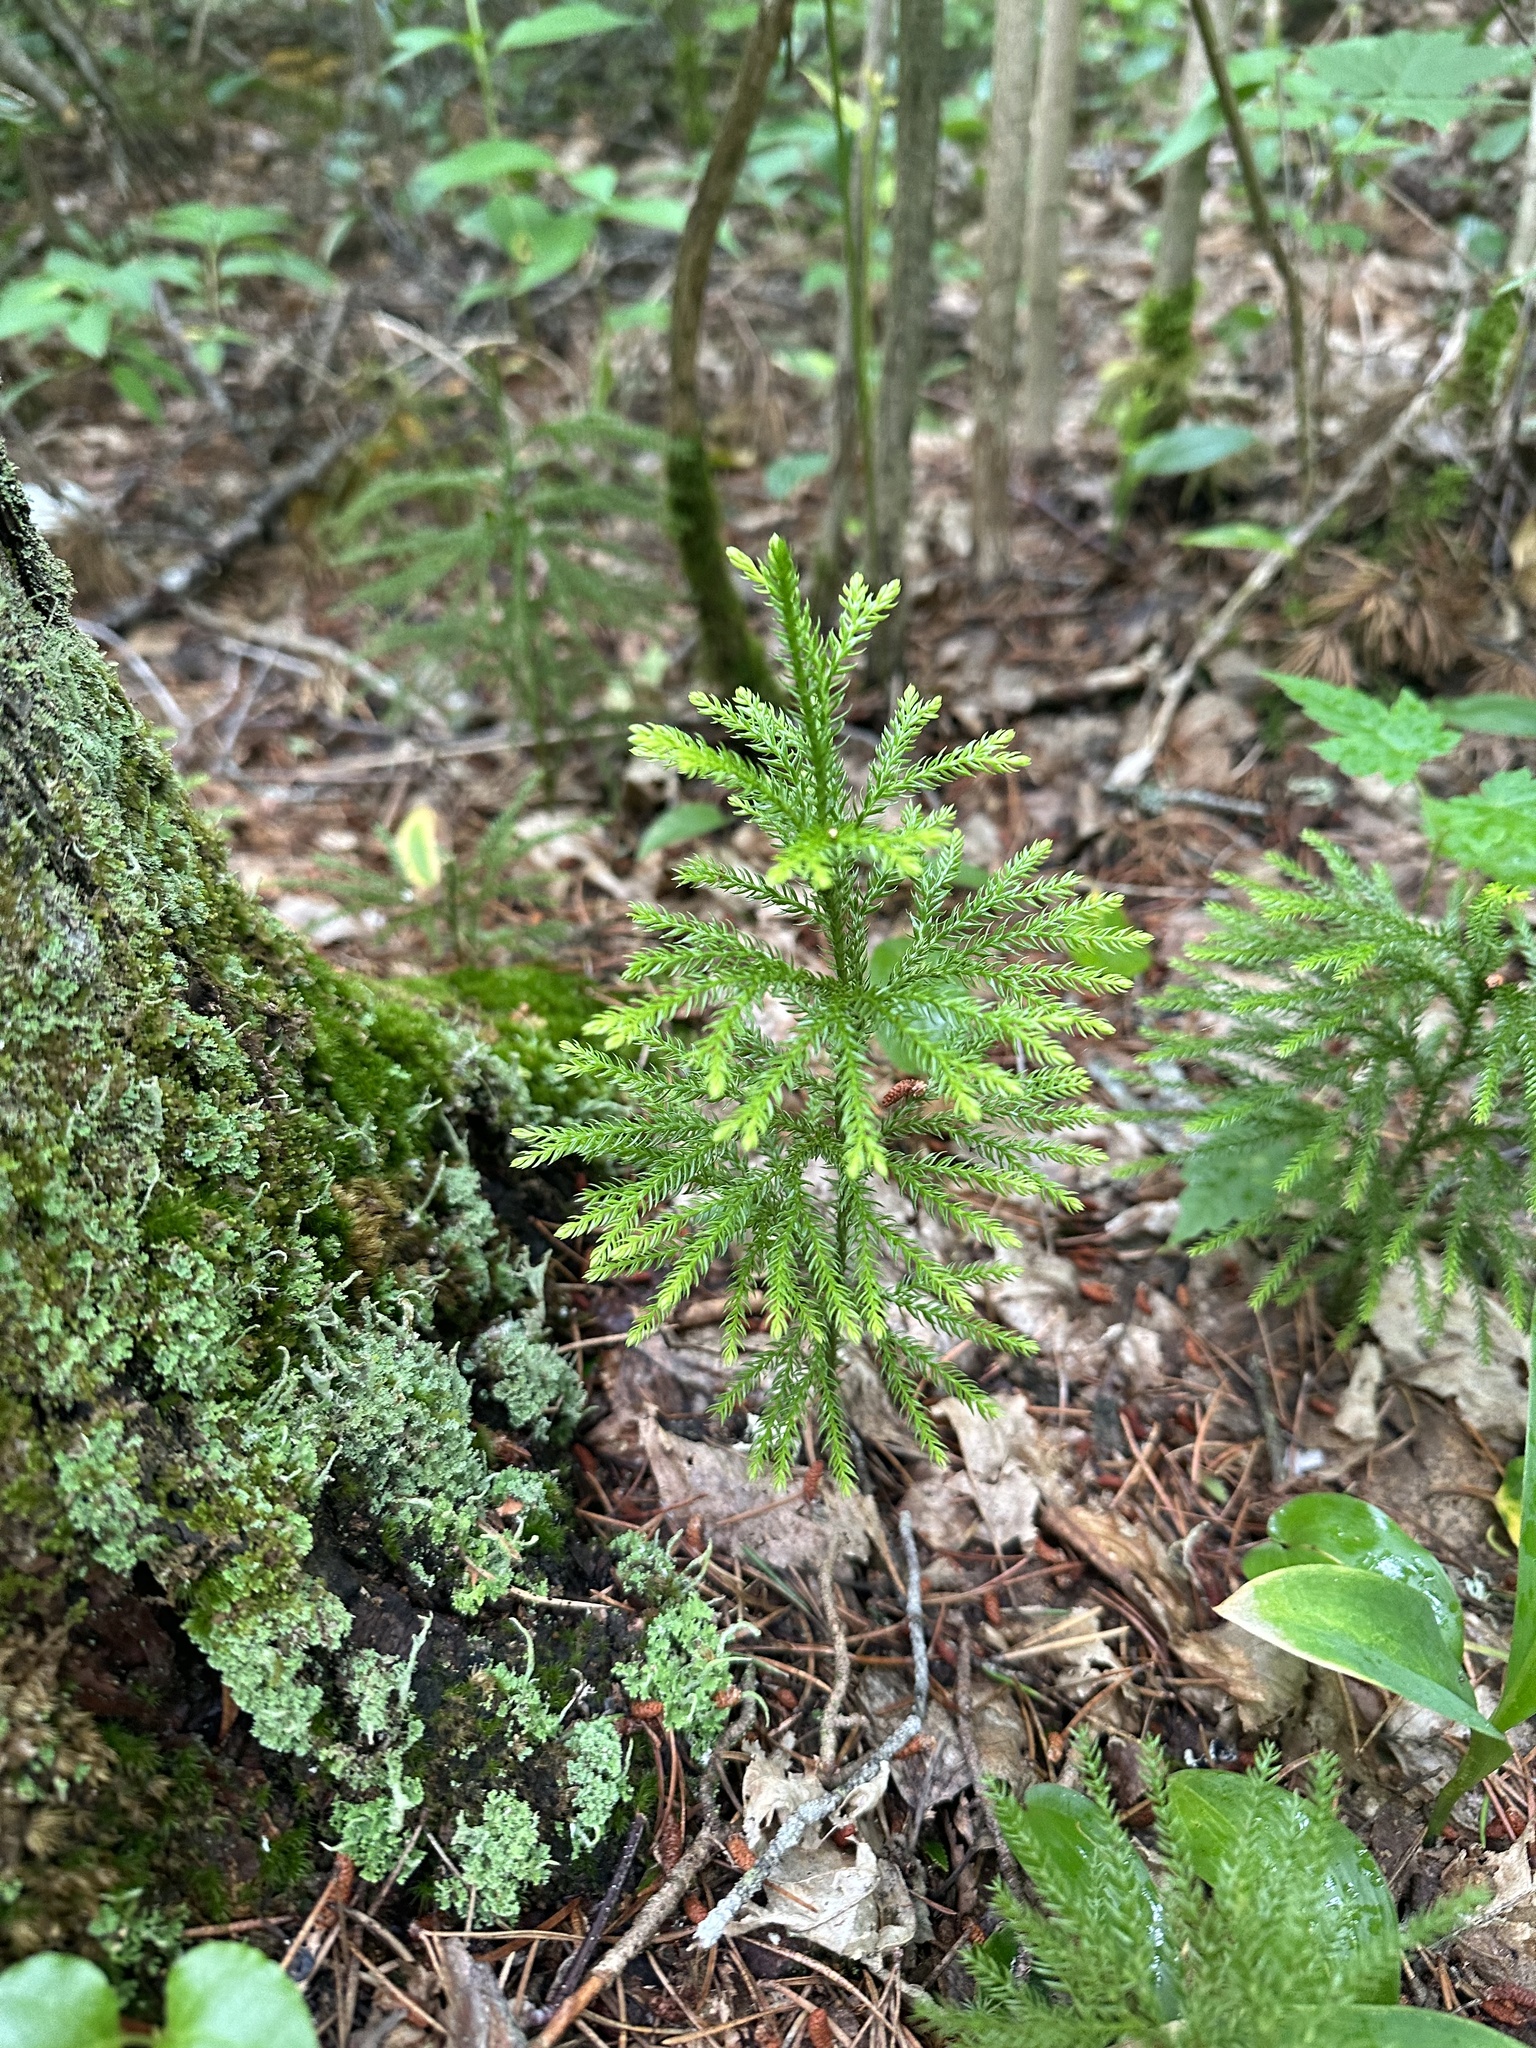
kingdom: Plantae
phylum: Tracheophyta
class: Lycopodiopsida
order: Lycopodiales
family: Lycopodiaceae
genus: Dendrolycopodium
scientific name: Dendrolycopodium dendroideum
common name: Northern tree-clubmoss
